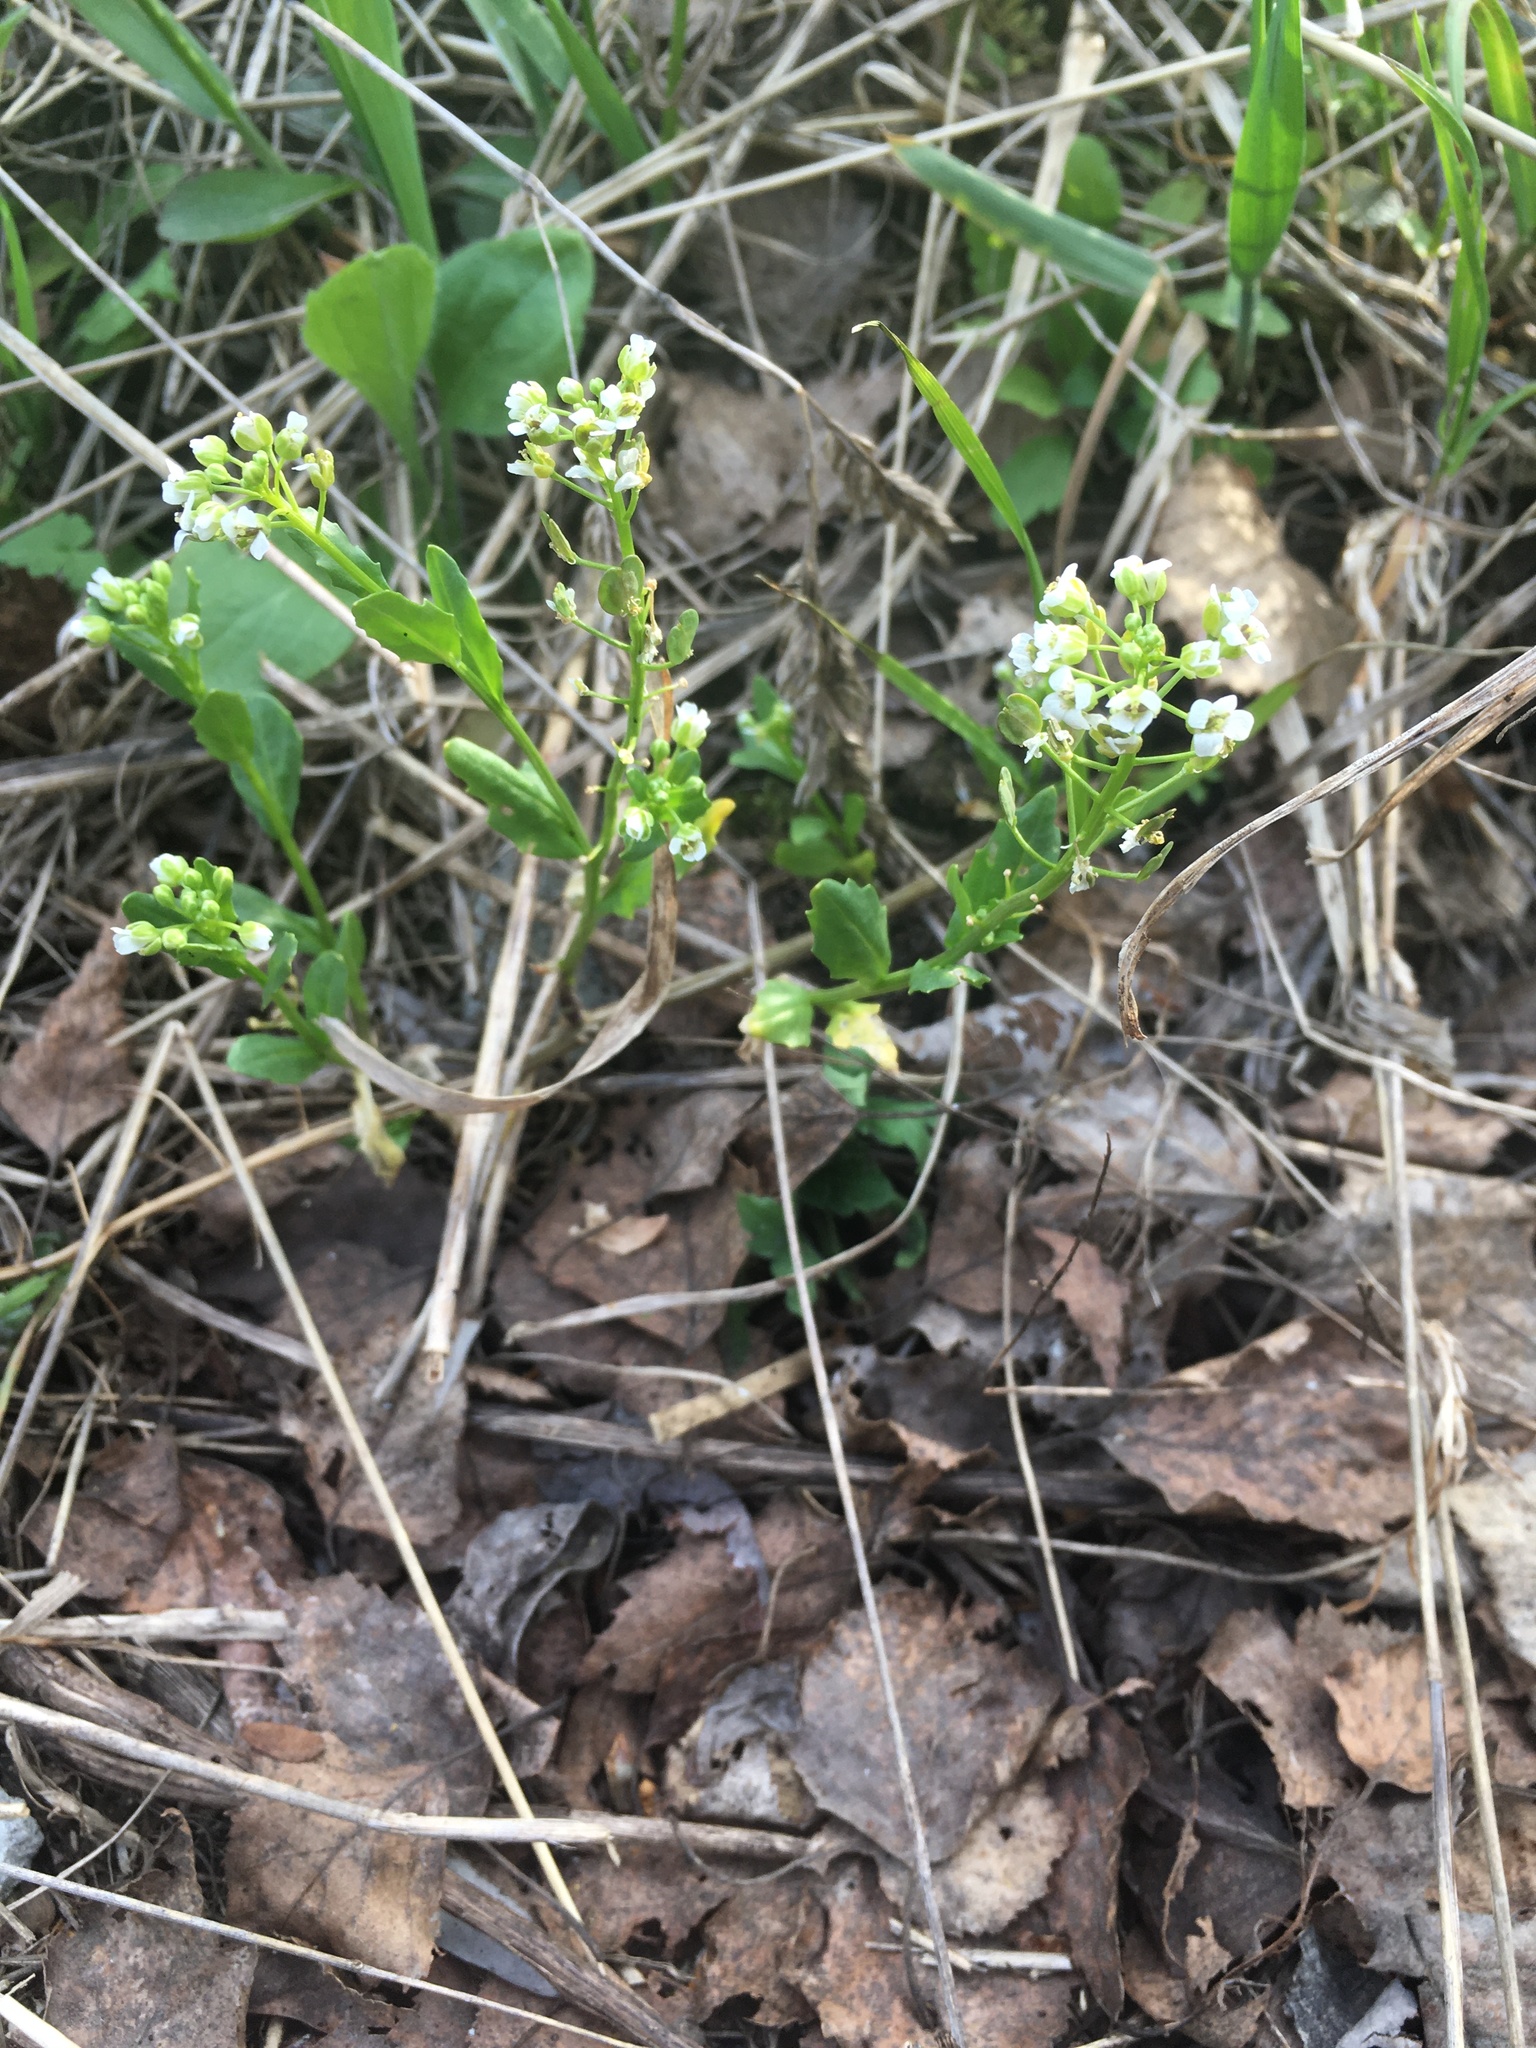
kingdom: Plantae
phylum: Tracheophyta
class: Magnoliopsida
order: Brassicales
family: Brassicaceae
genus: Thlaspi
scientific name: Thlaspi arvense
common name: Field pennycress
